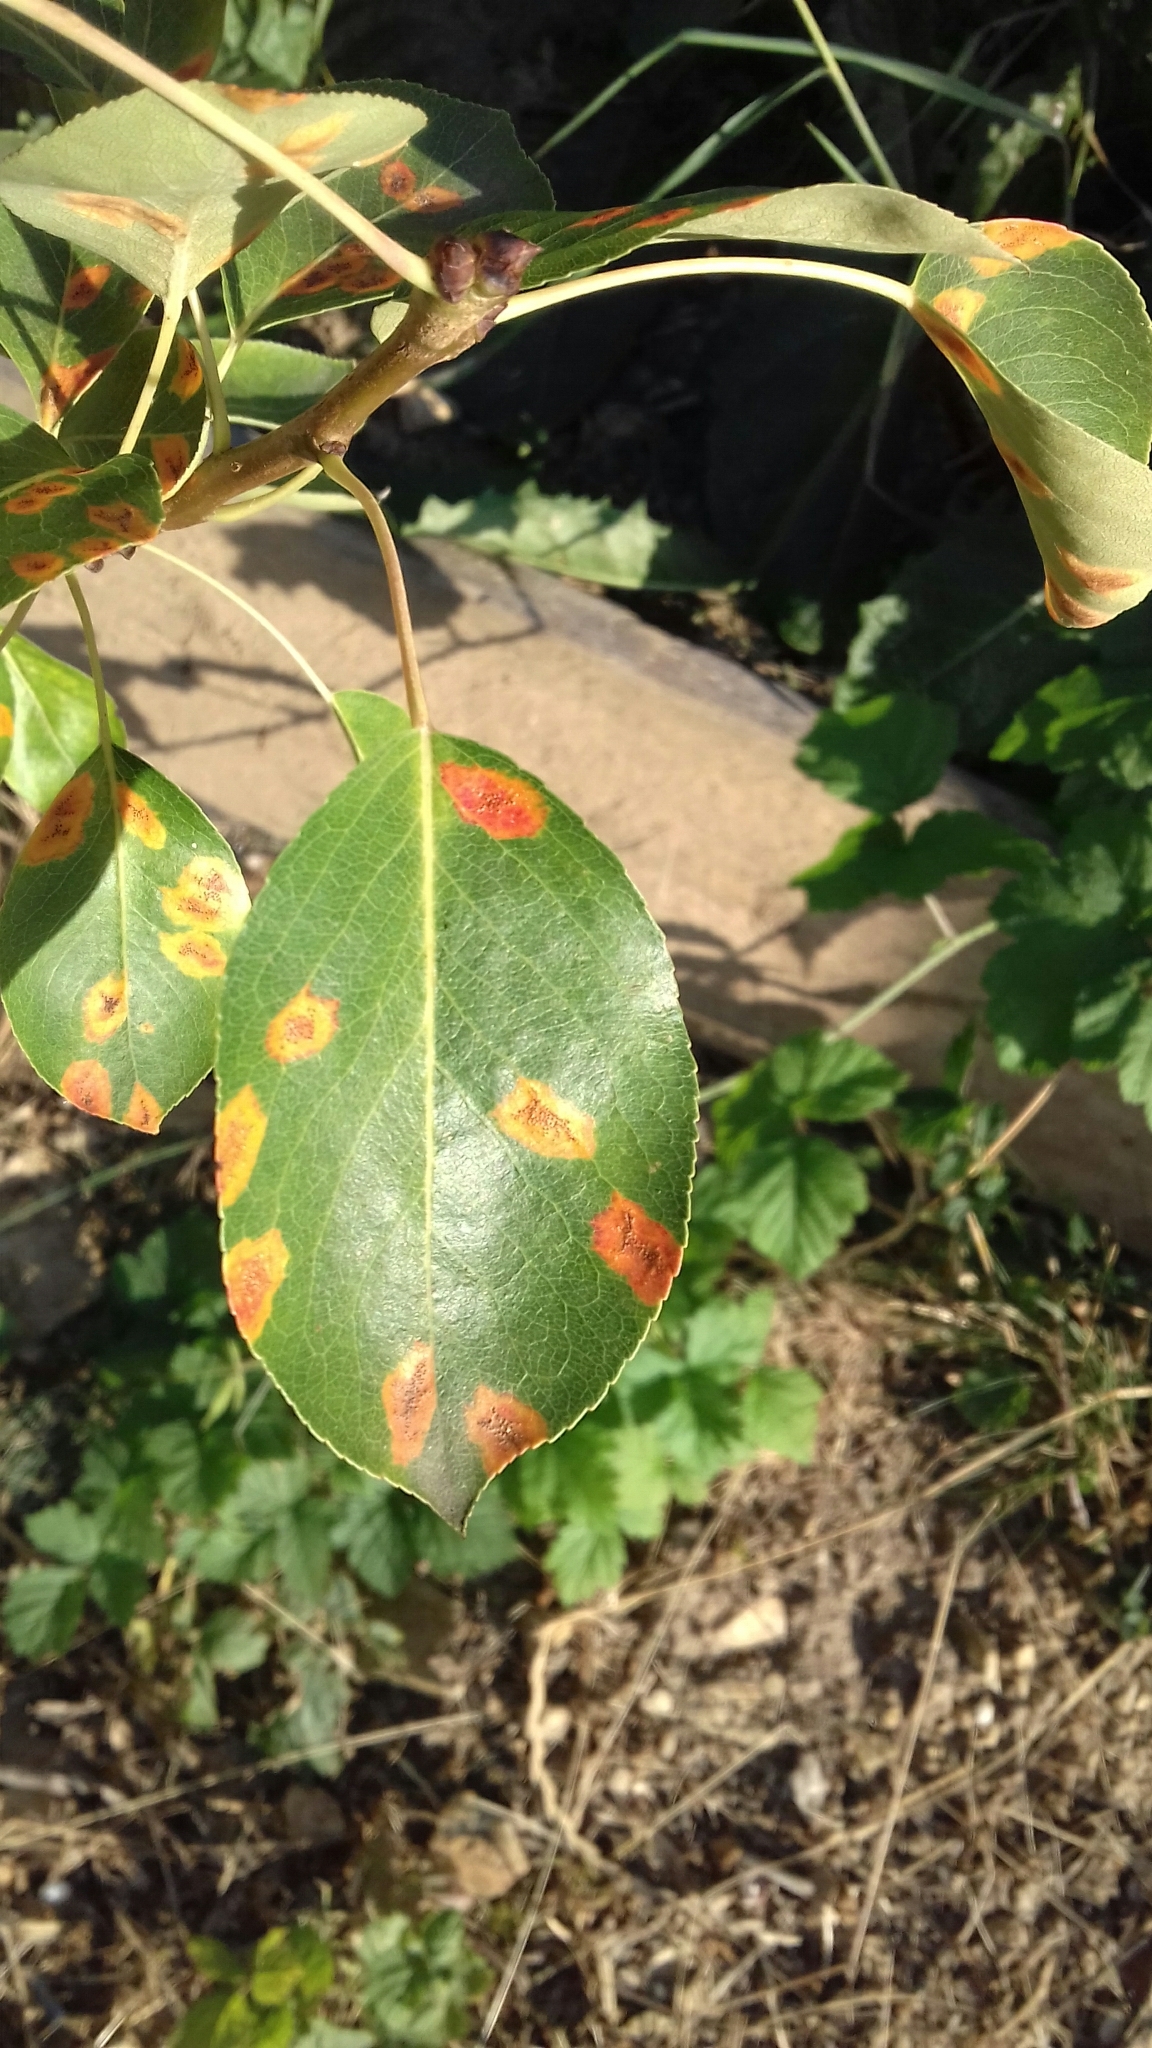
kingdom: Fungi
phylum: Basidiomycota
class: Pucciniomycetes
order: Pucciniales
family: Gymnosporangiaceae
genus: Gymnosporangium
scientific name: Gymnosporangium sabinae
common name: Pear trellis rust fungus
